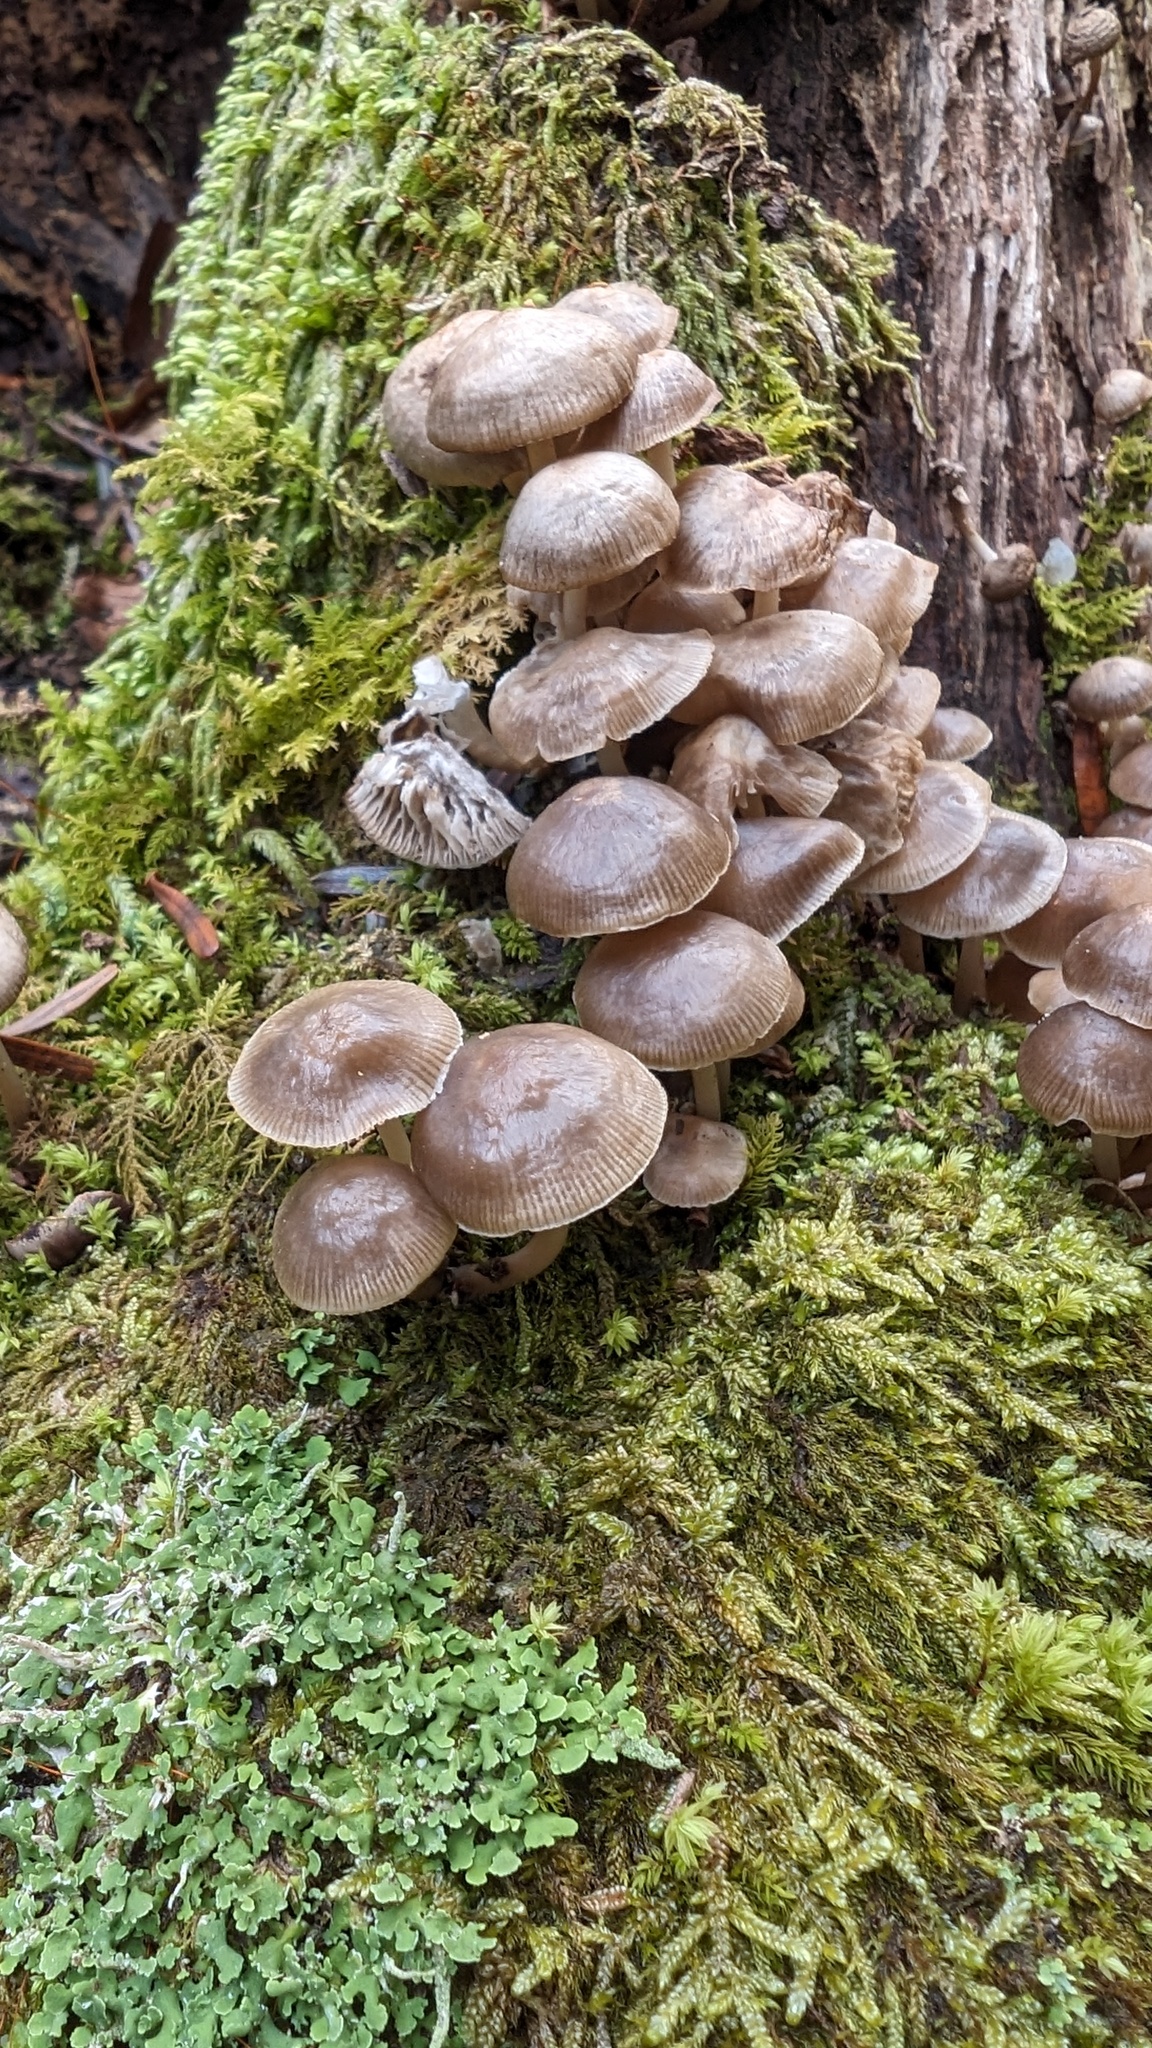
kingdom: Fungi
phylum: Basidiomycota
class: Agaricomycetes
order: Agaricales
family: Mycenaceae
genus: Mycena
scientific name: Mycena laevigata
